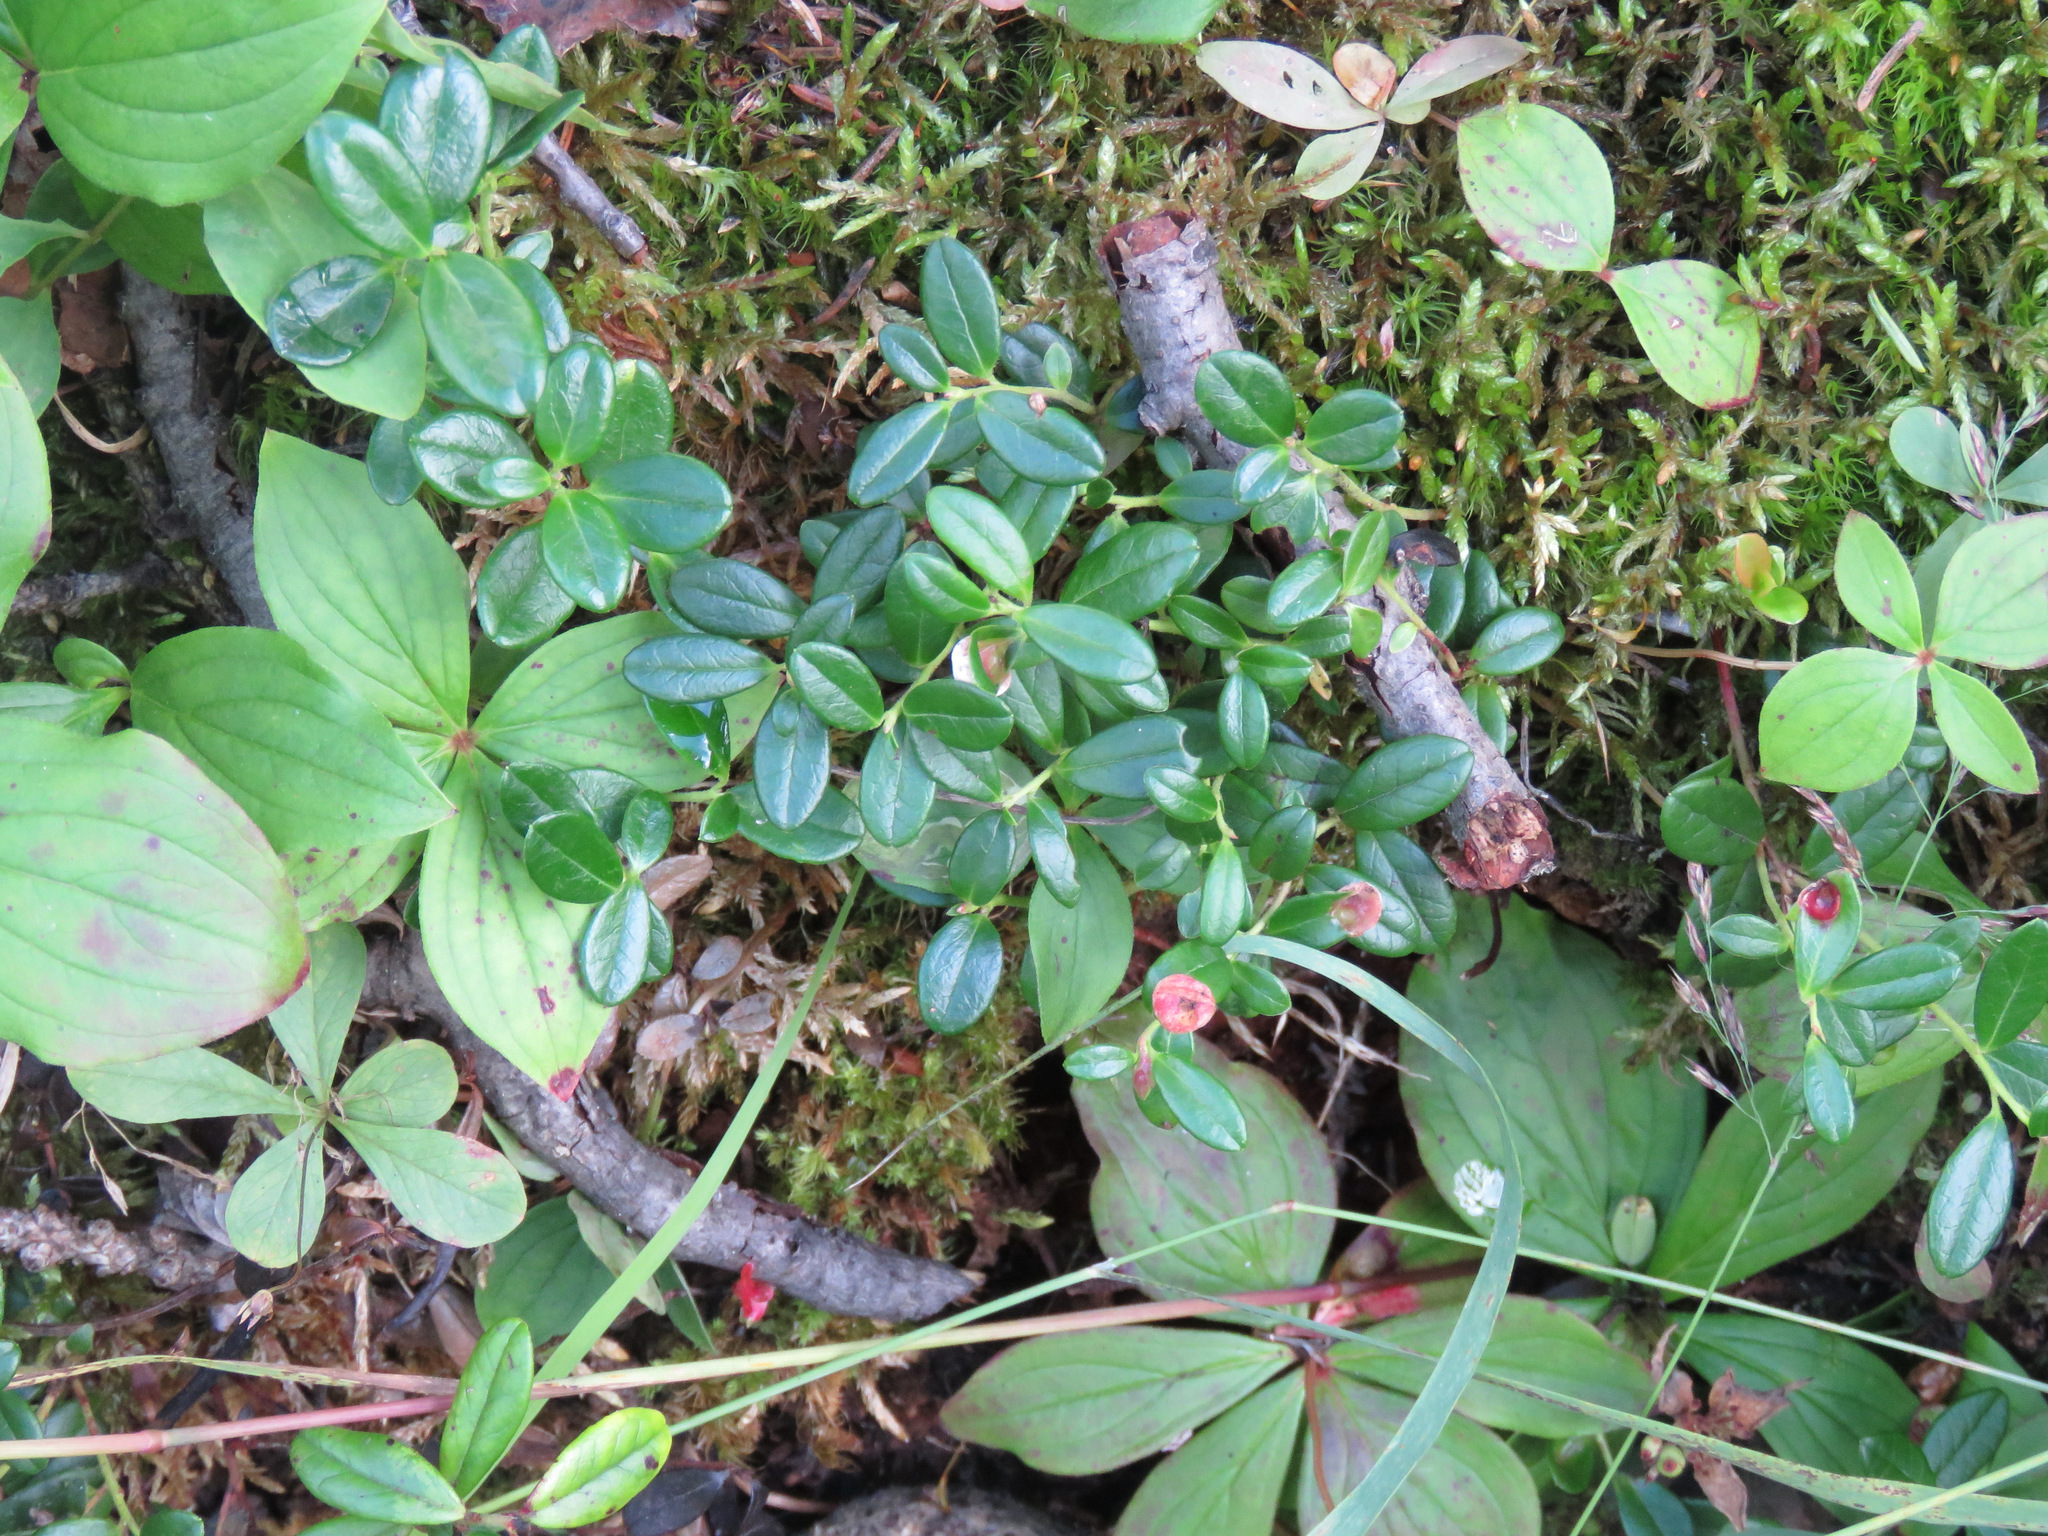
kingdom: Plantae
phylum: Tracheophyta
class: Magnoliopsida
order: Ericales
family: Ericaceae
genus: Vaccinium
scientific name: Vaccinium vitis-idaea
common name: Cowberry
